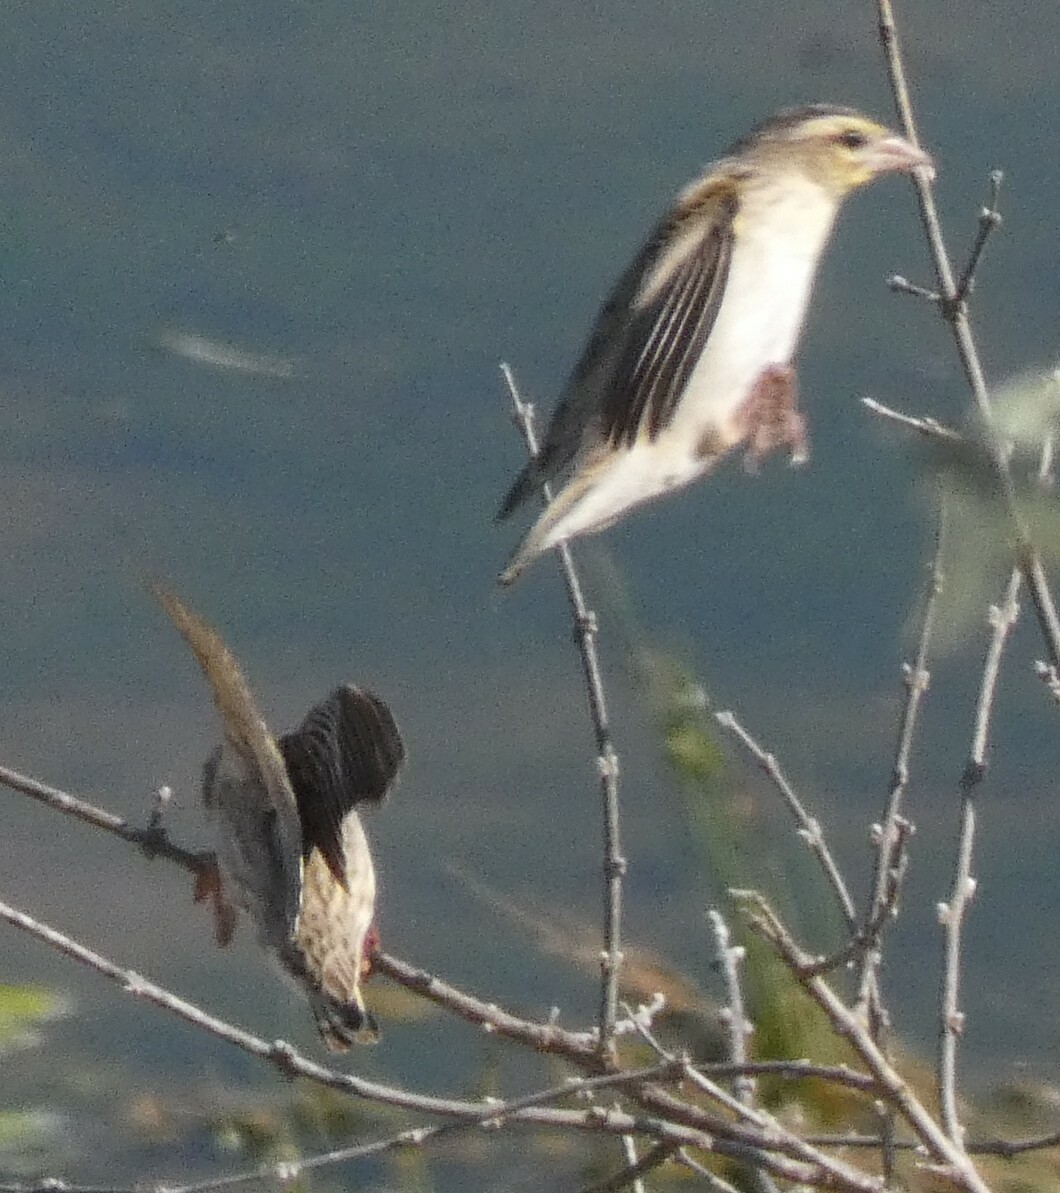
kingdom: Animalia
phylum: Chordata
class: Aves
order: Passeriformes
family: Ploceidae
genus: Euplectes
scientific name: Euplectes albonotatus
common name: White-winged widowbird
